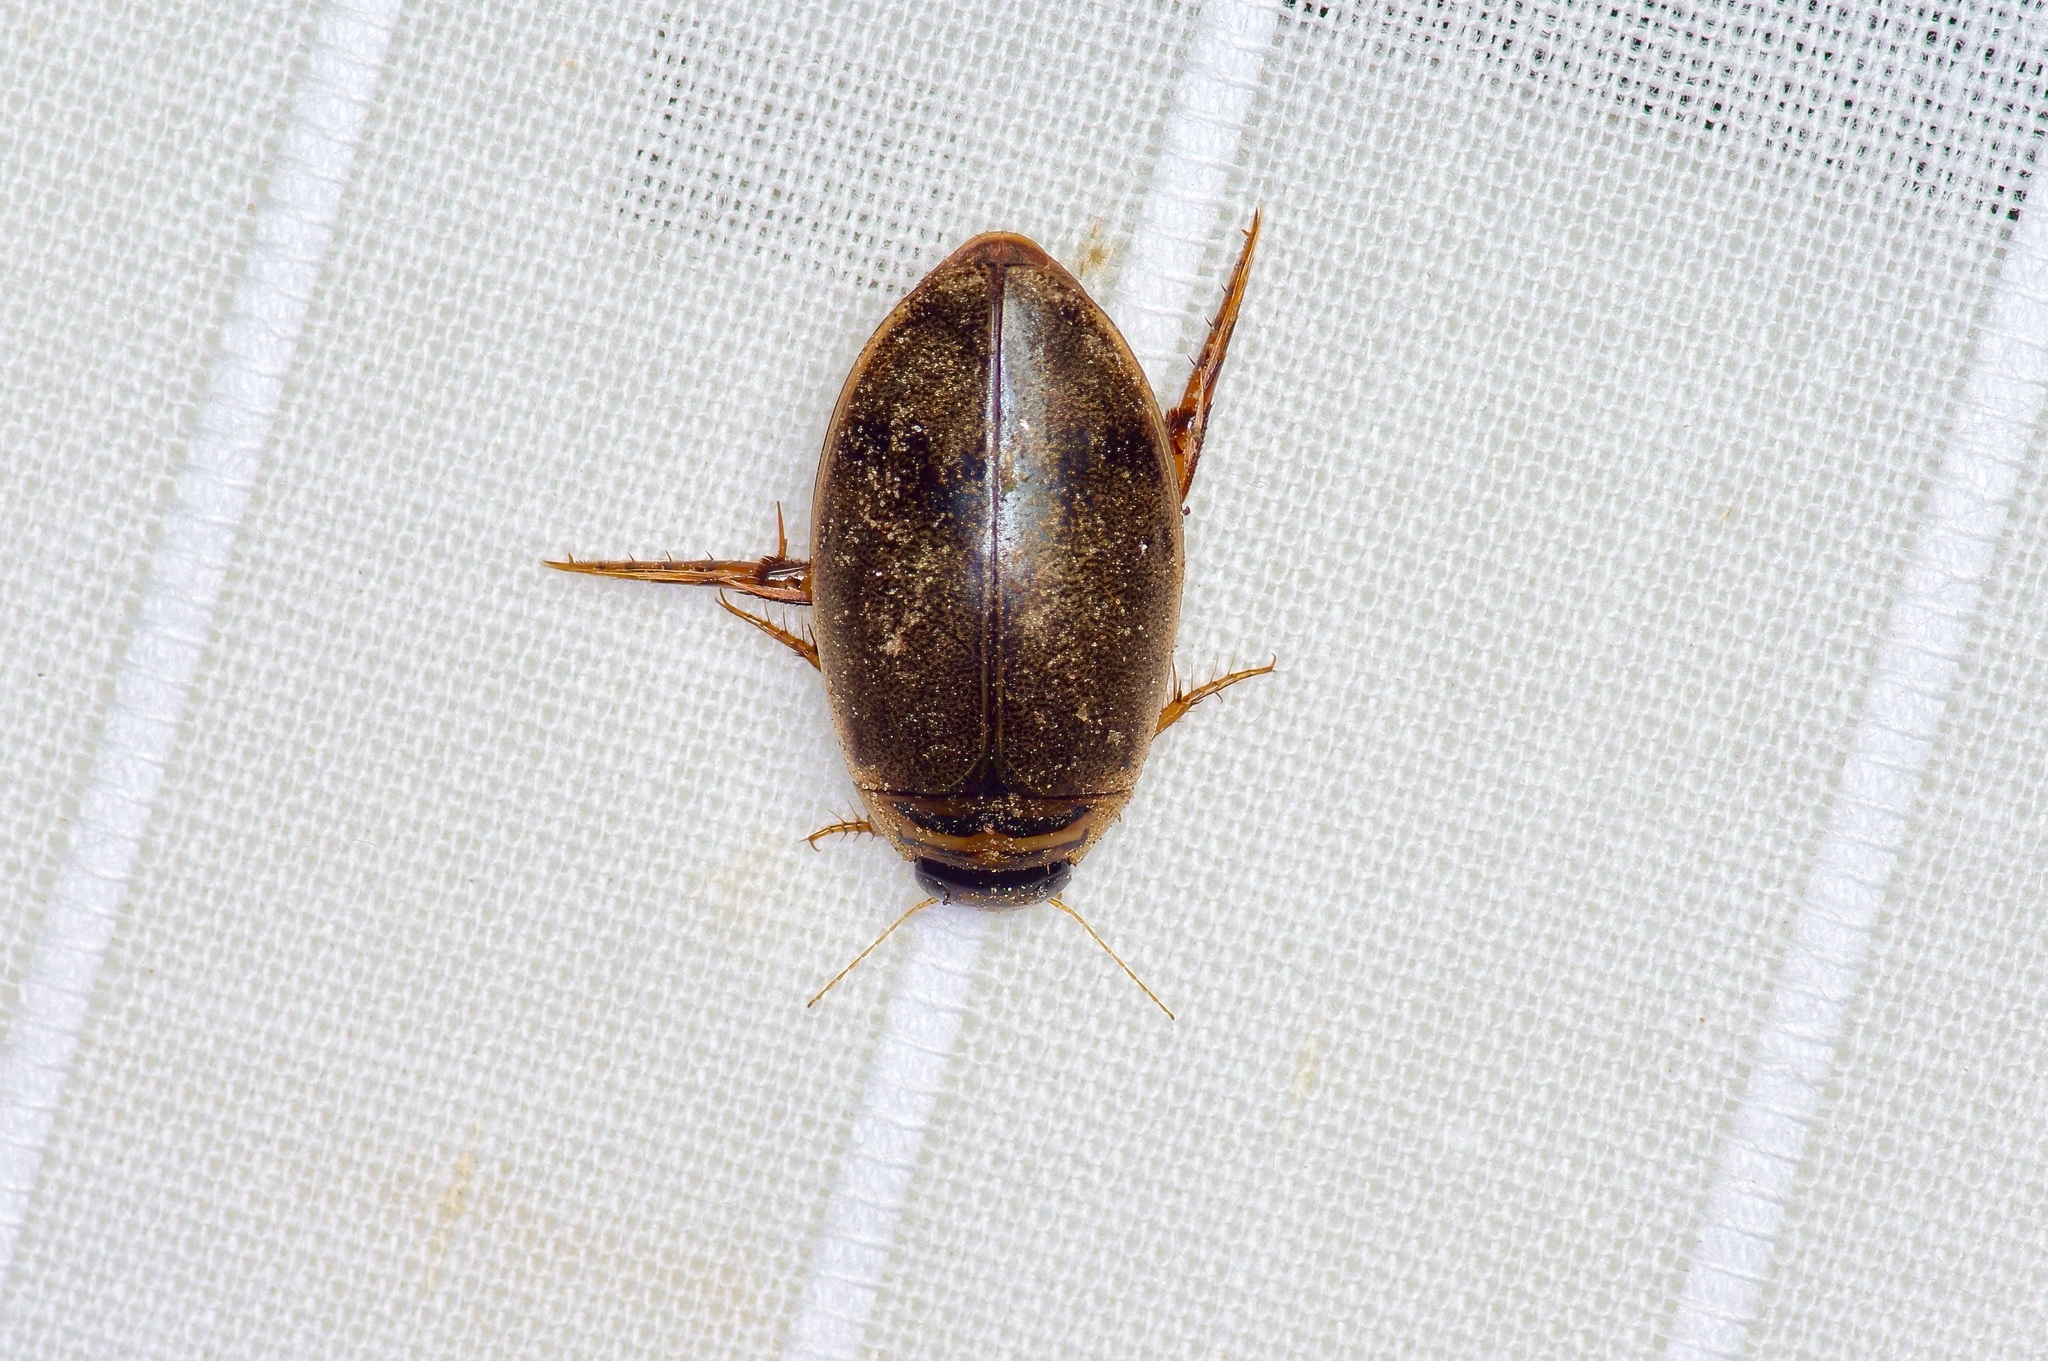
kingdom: Animalia
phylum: Arthropoda
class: Insecta
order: Coleoptera
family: Dytiscidae
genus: Thermonectus
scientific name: Thermonectus nigrofasciatus
